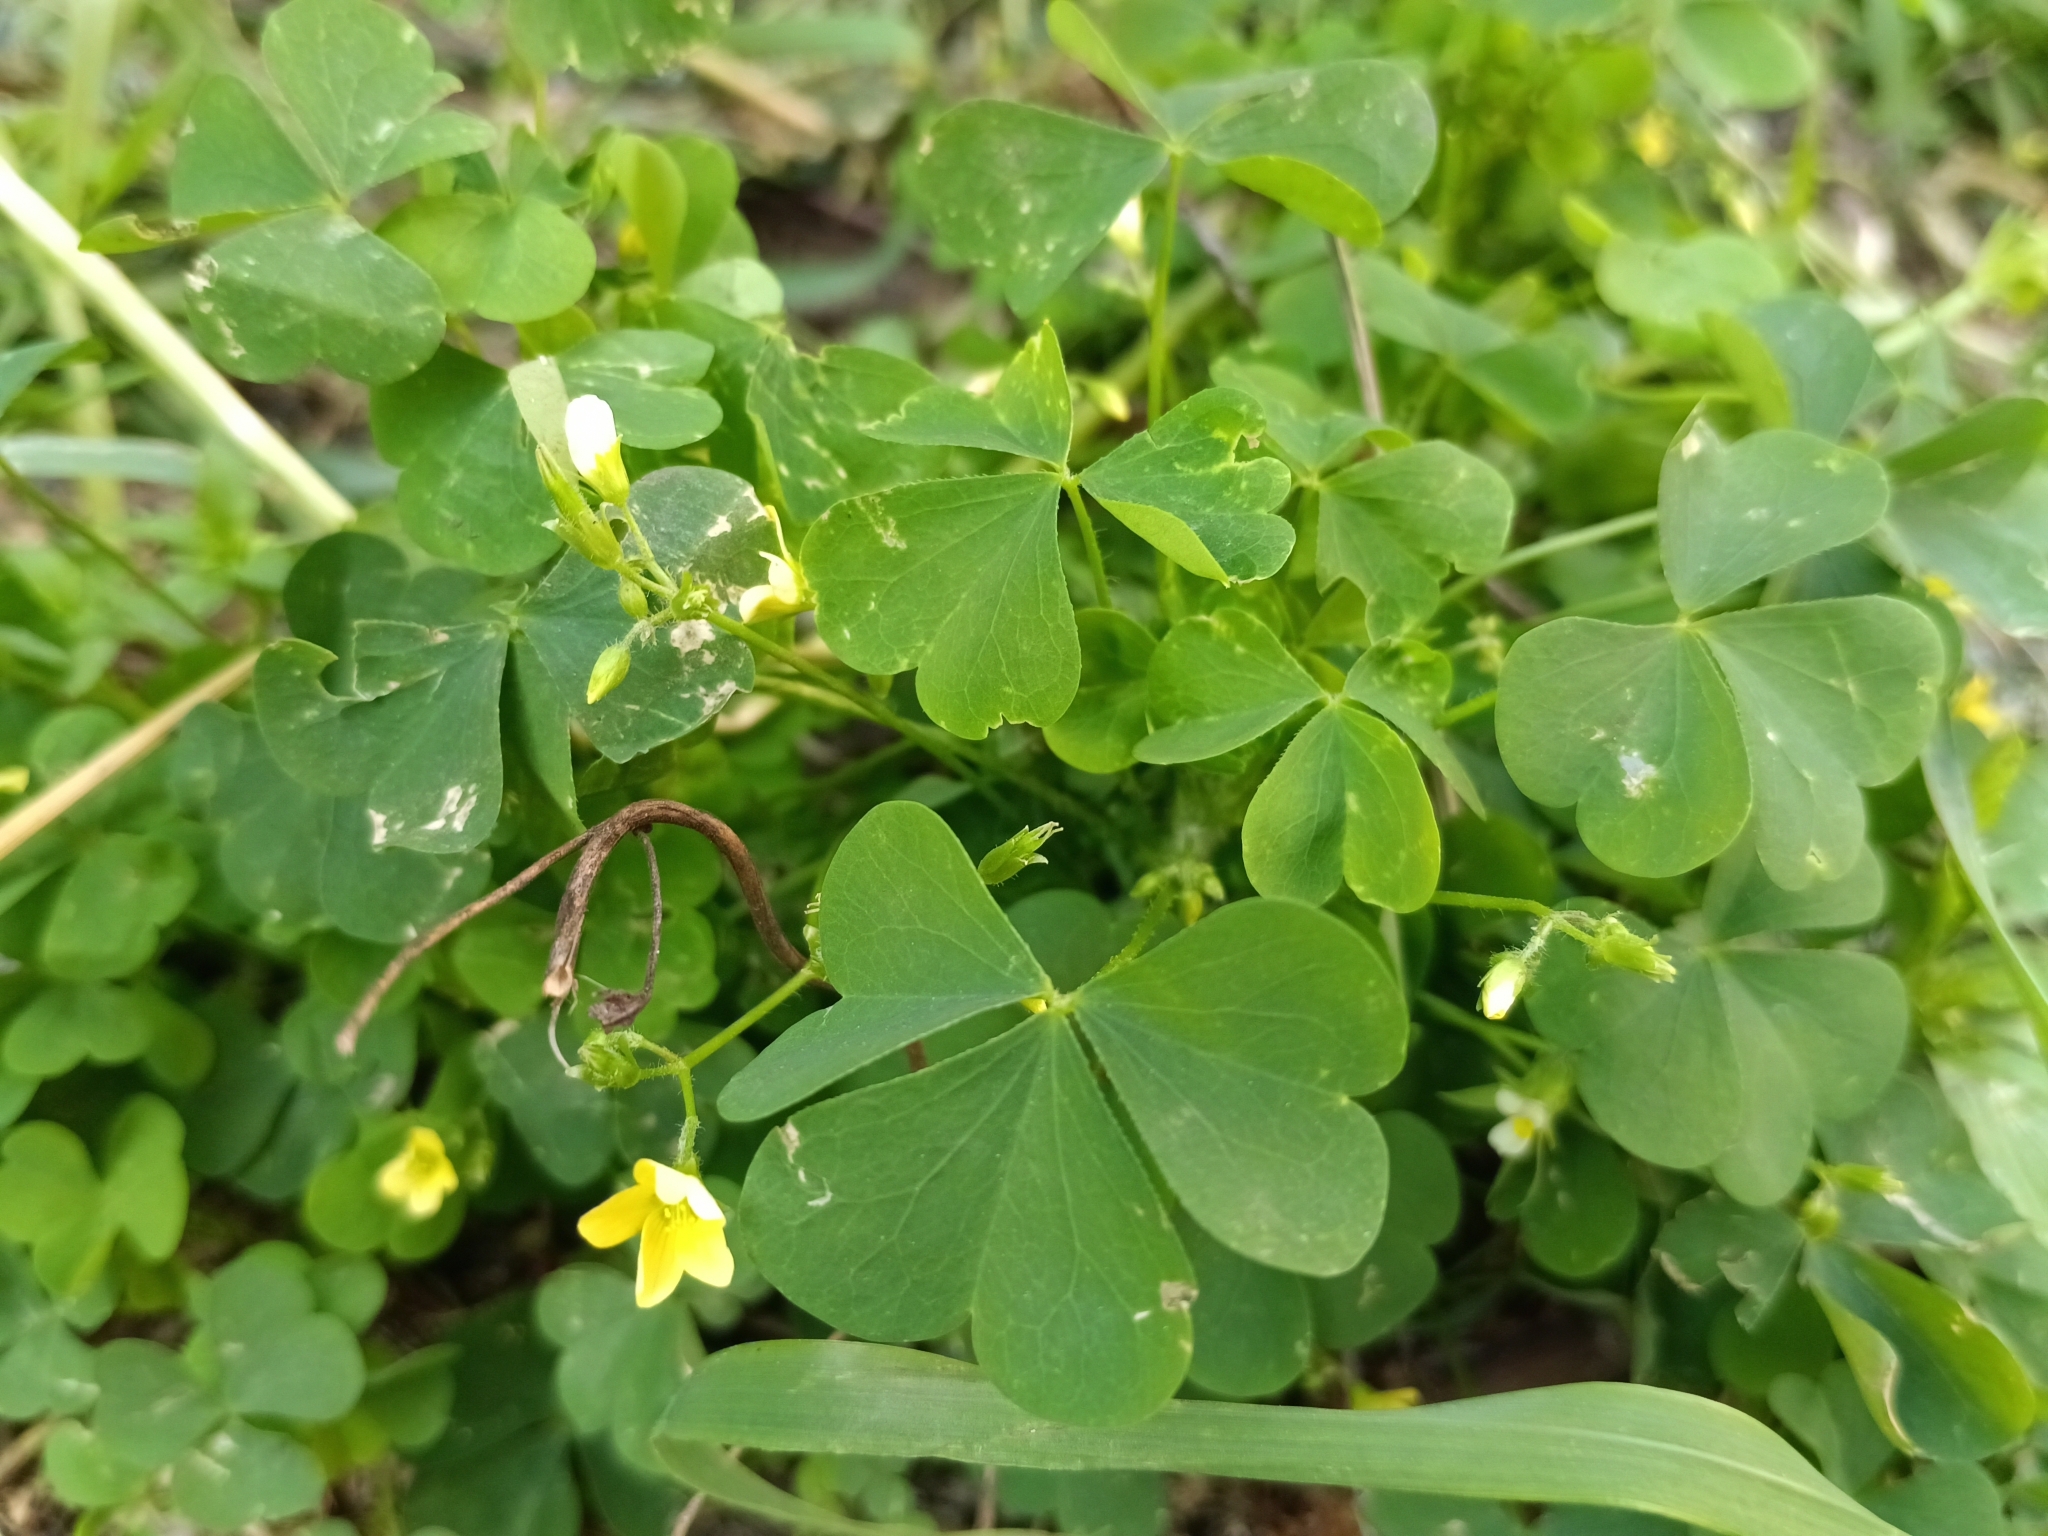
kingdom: Plantae
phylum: Tracheophyta
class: Magnoliopsida
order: Oxalidales
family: Oxalidaceae
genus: Oxalis
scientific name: Oxalis stricta
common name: Upright yellow-sorrel
